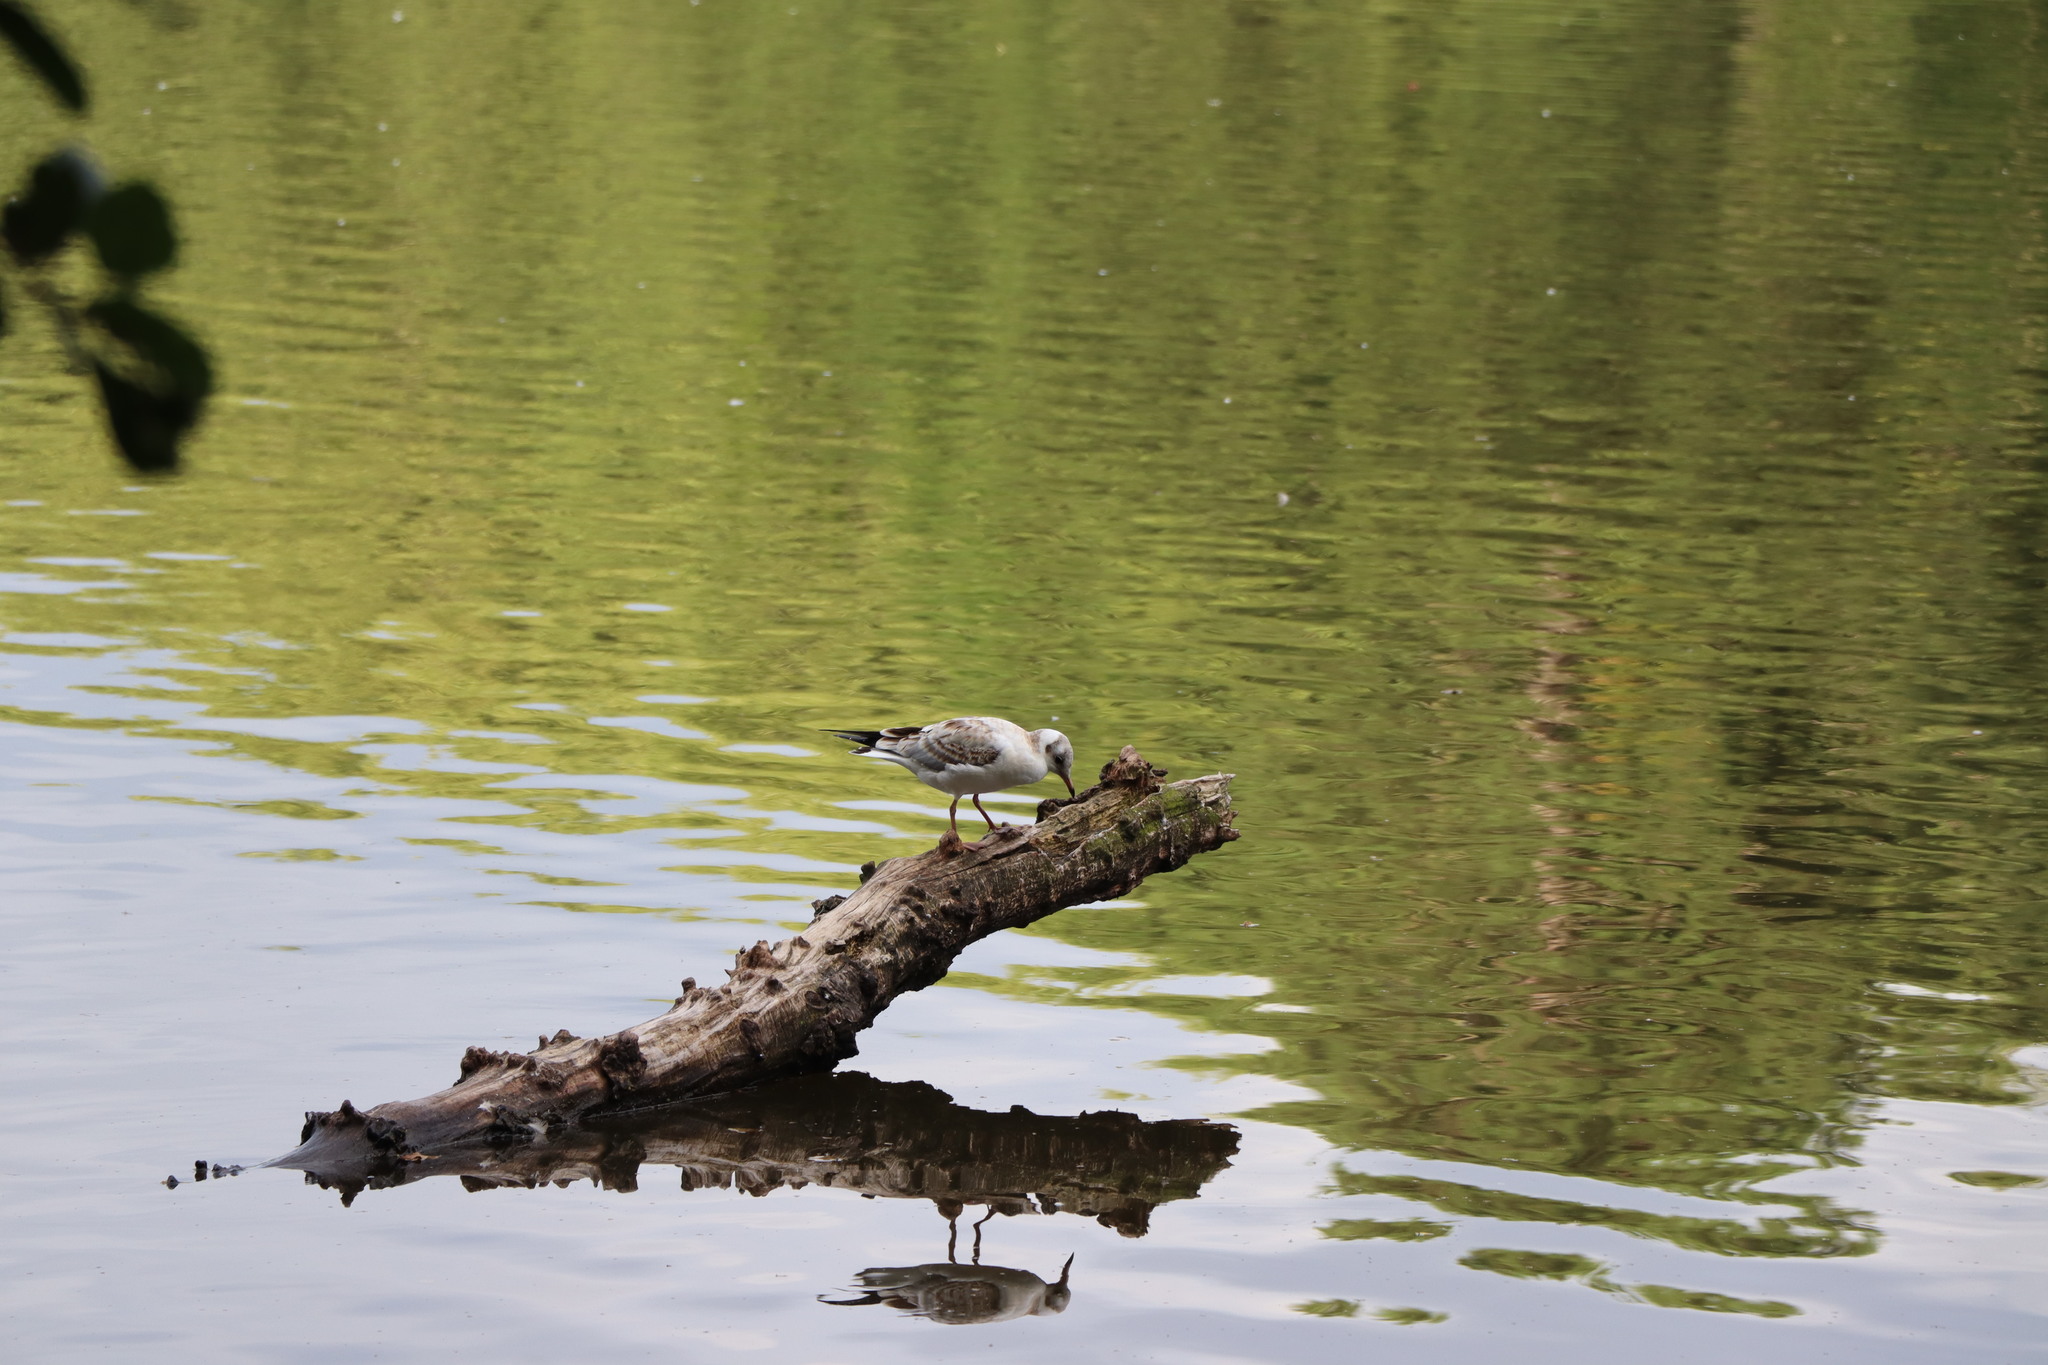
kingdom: Animalia
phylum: Chordata
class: Aves
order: Charadriiformes
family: Laridae
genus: Chroicocephalus
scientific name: Chroicocephalus ridibundus
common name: Black-headed gull
